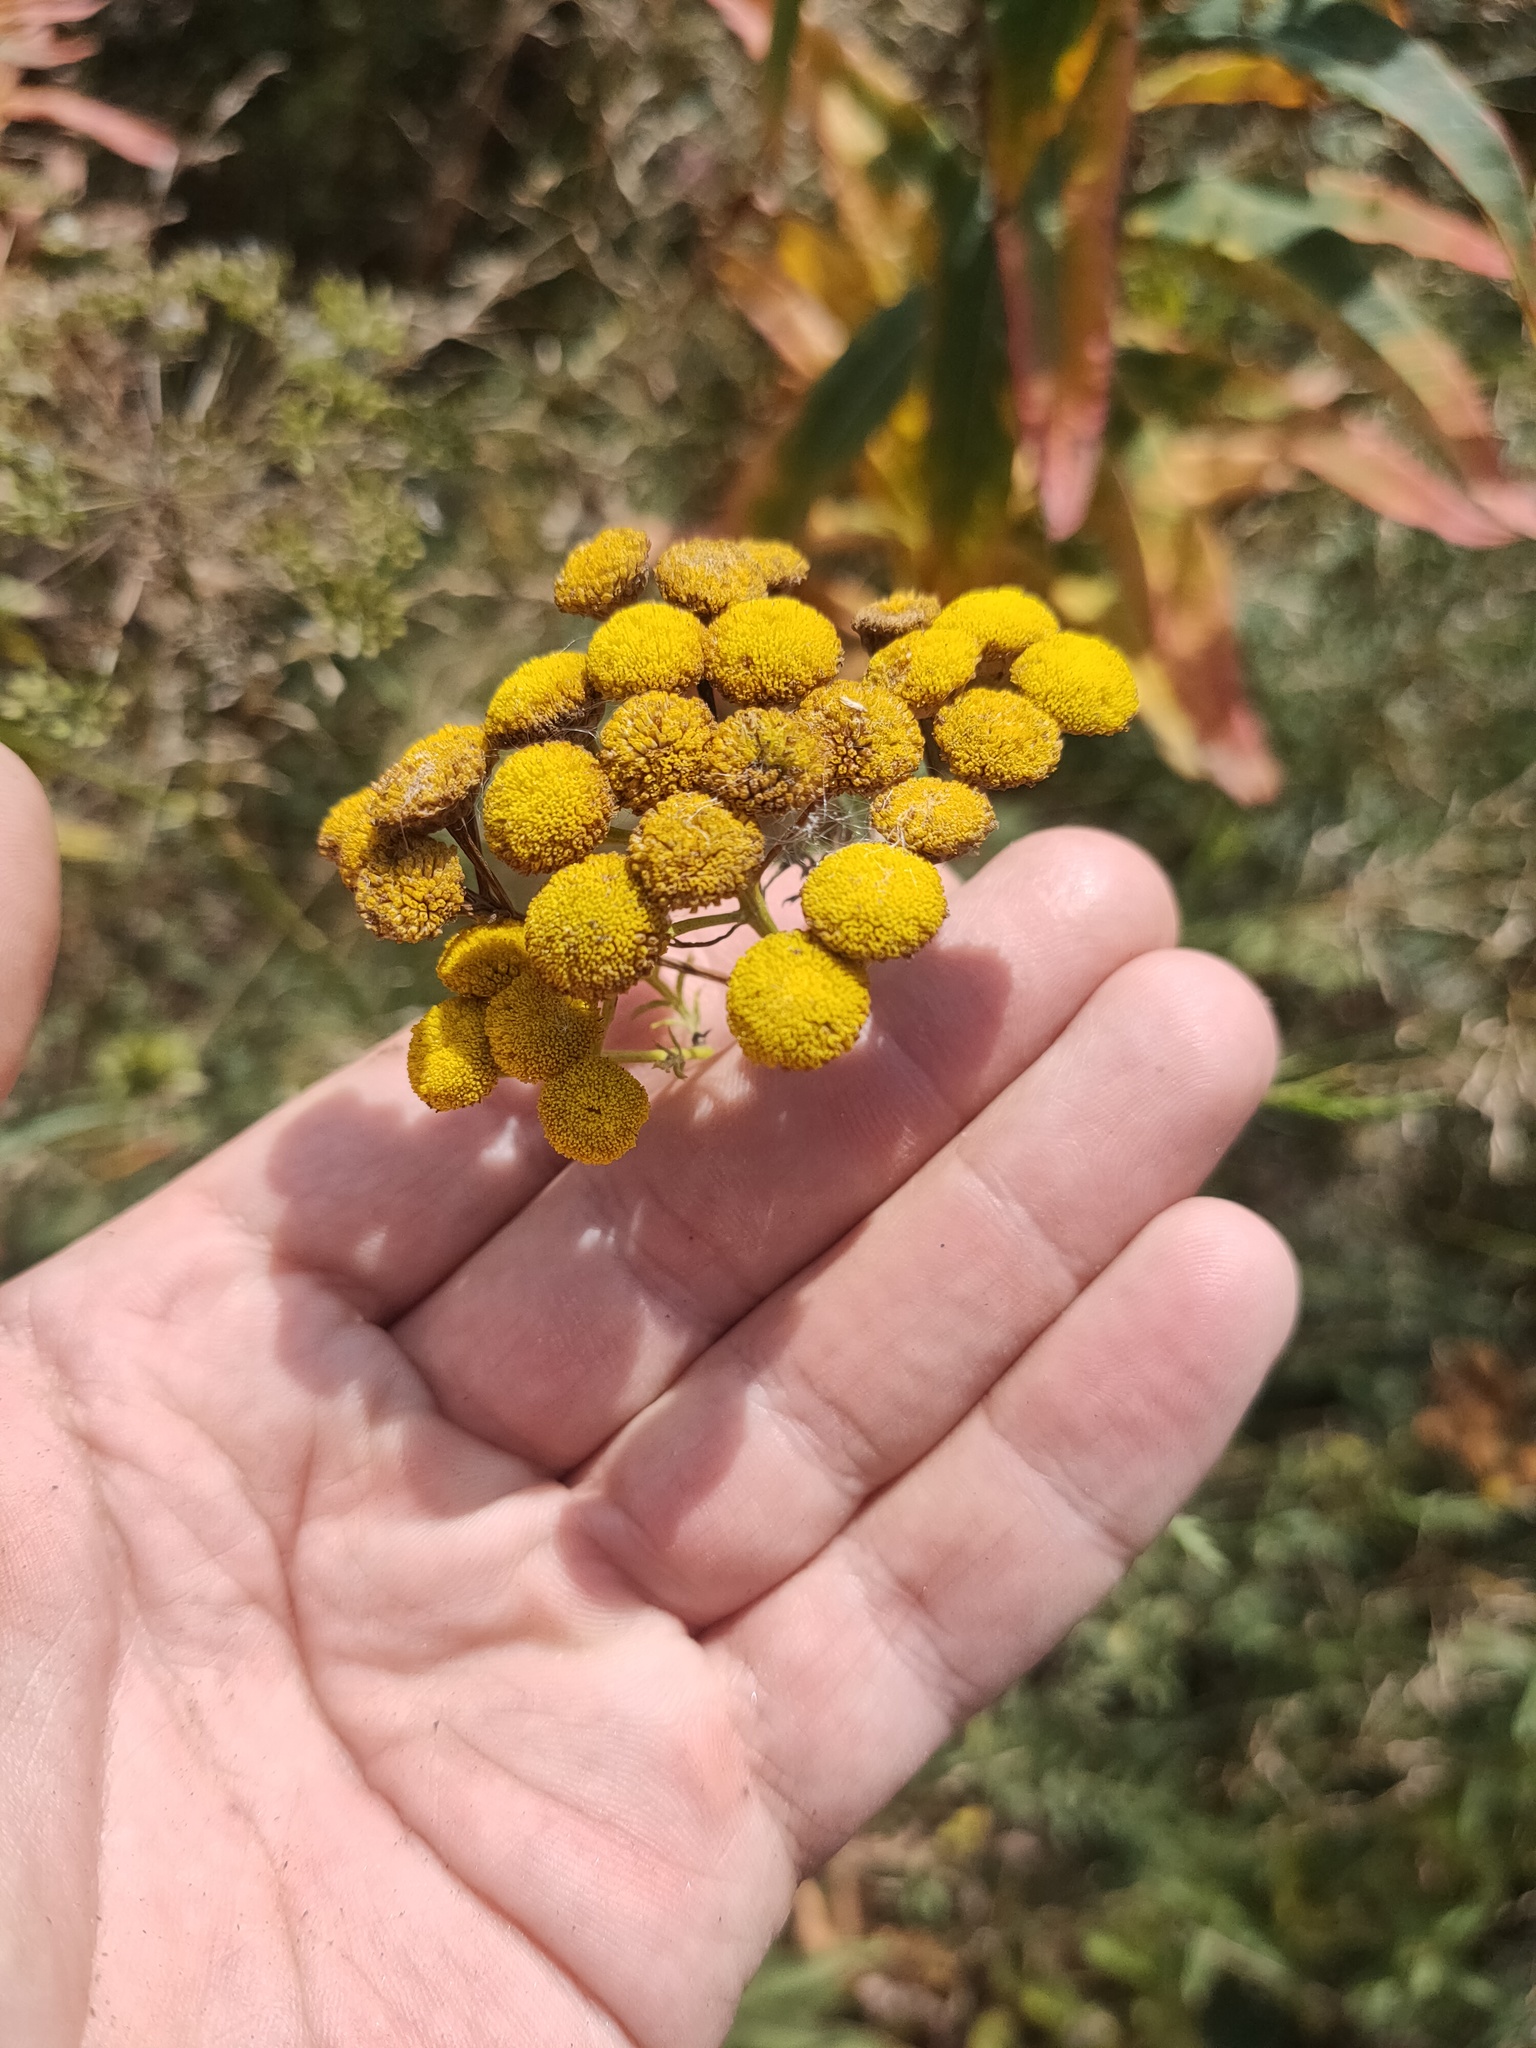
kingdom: Plantae
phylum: Tracheophyta
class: Magnoliopsida
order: Asterales
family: Asteraceae
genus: Tanacetum
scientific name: Tanacetum vulgare
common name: Common tansy
